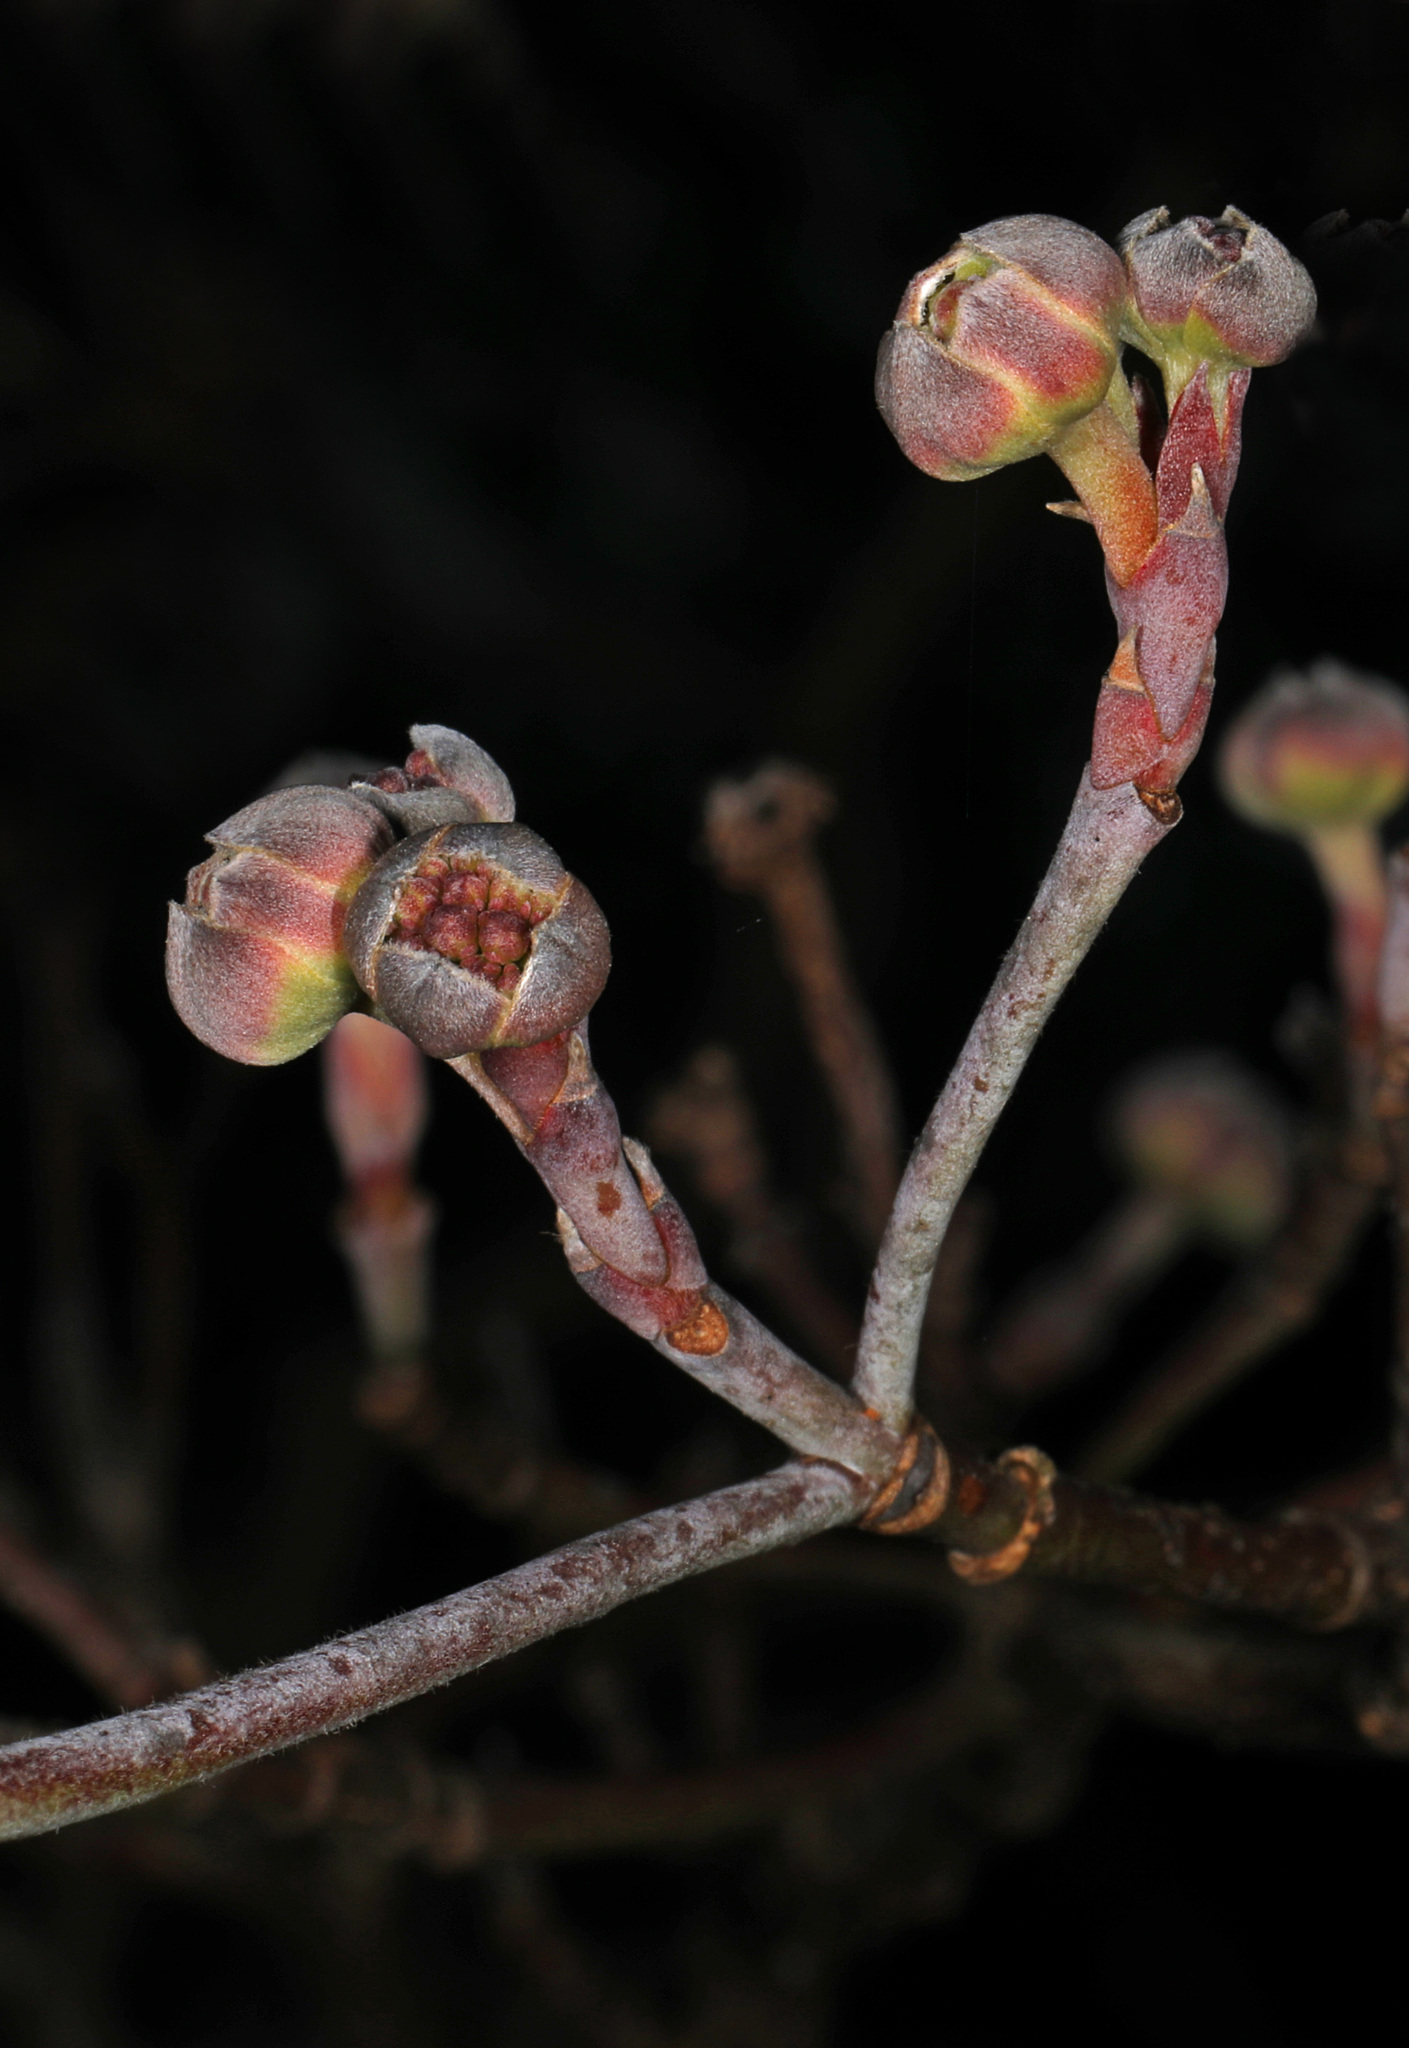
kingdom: Plantae
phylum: Tracheophyta
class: Magnoliopsida
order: Cornales
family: Cornaceae
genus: Cornus
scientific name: Cornus florida
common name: Flowering dogwood
